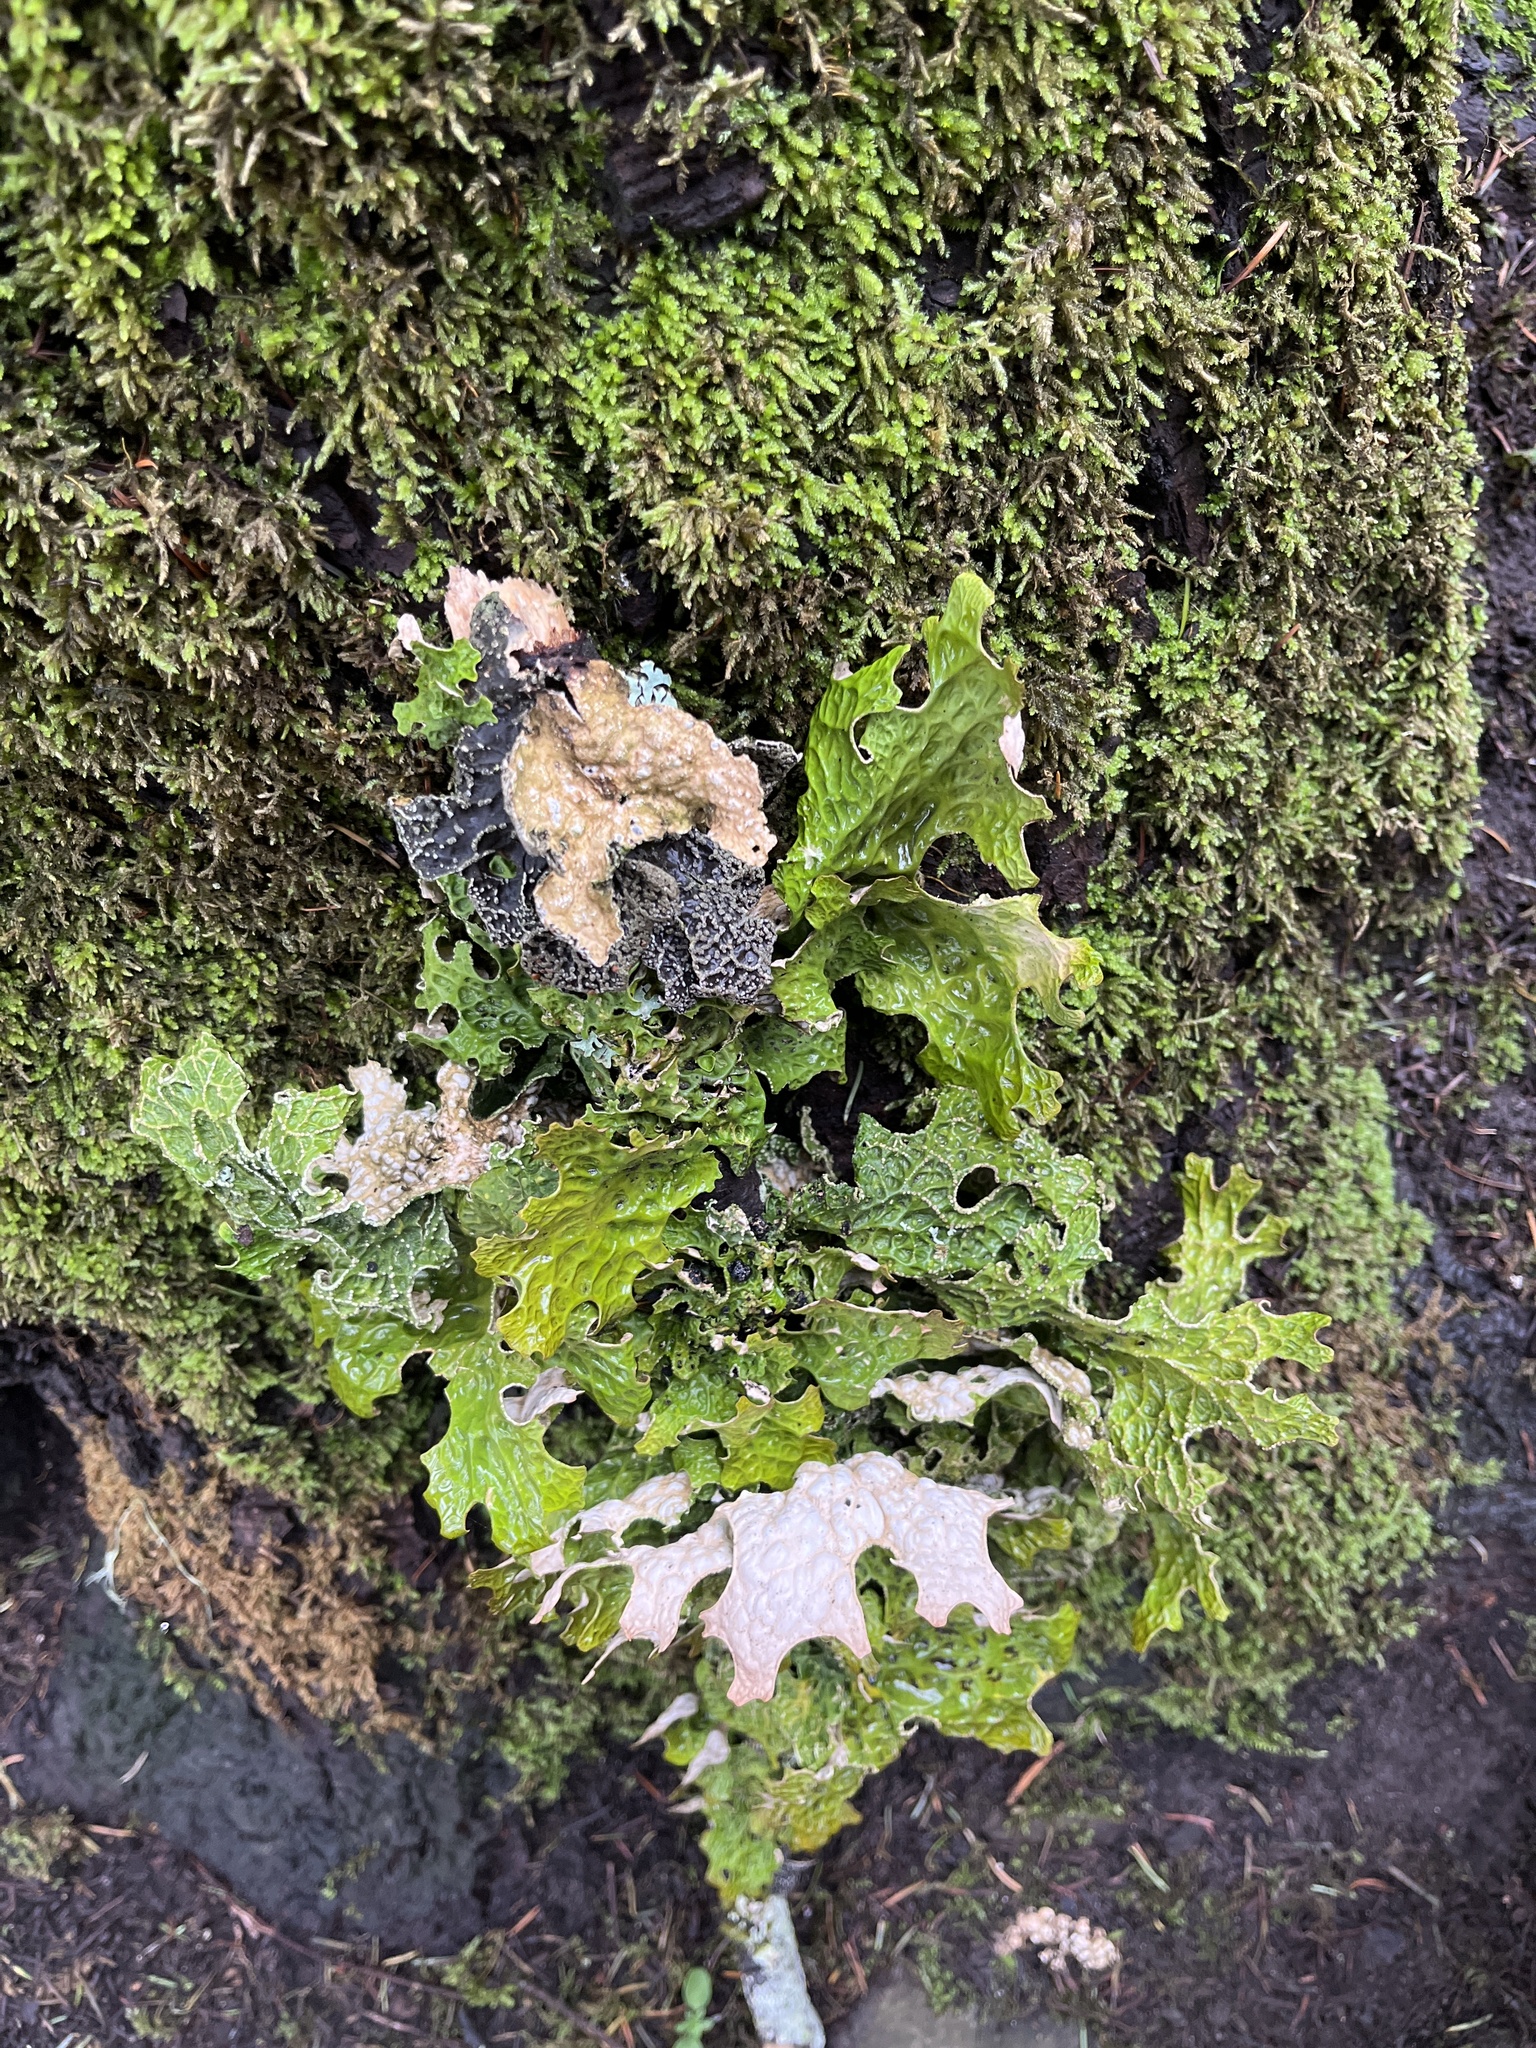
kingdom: Fungi
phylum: Ascomycota
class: Lecanoromycetes
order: Peltigerales
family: Lobariaceae
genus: Lobaria
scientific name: Lobaria pulmonaria
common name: Lungwort
